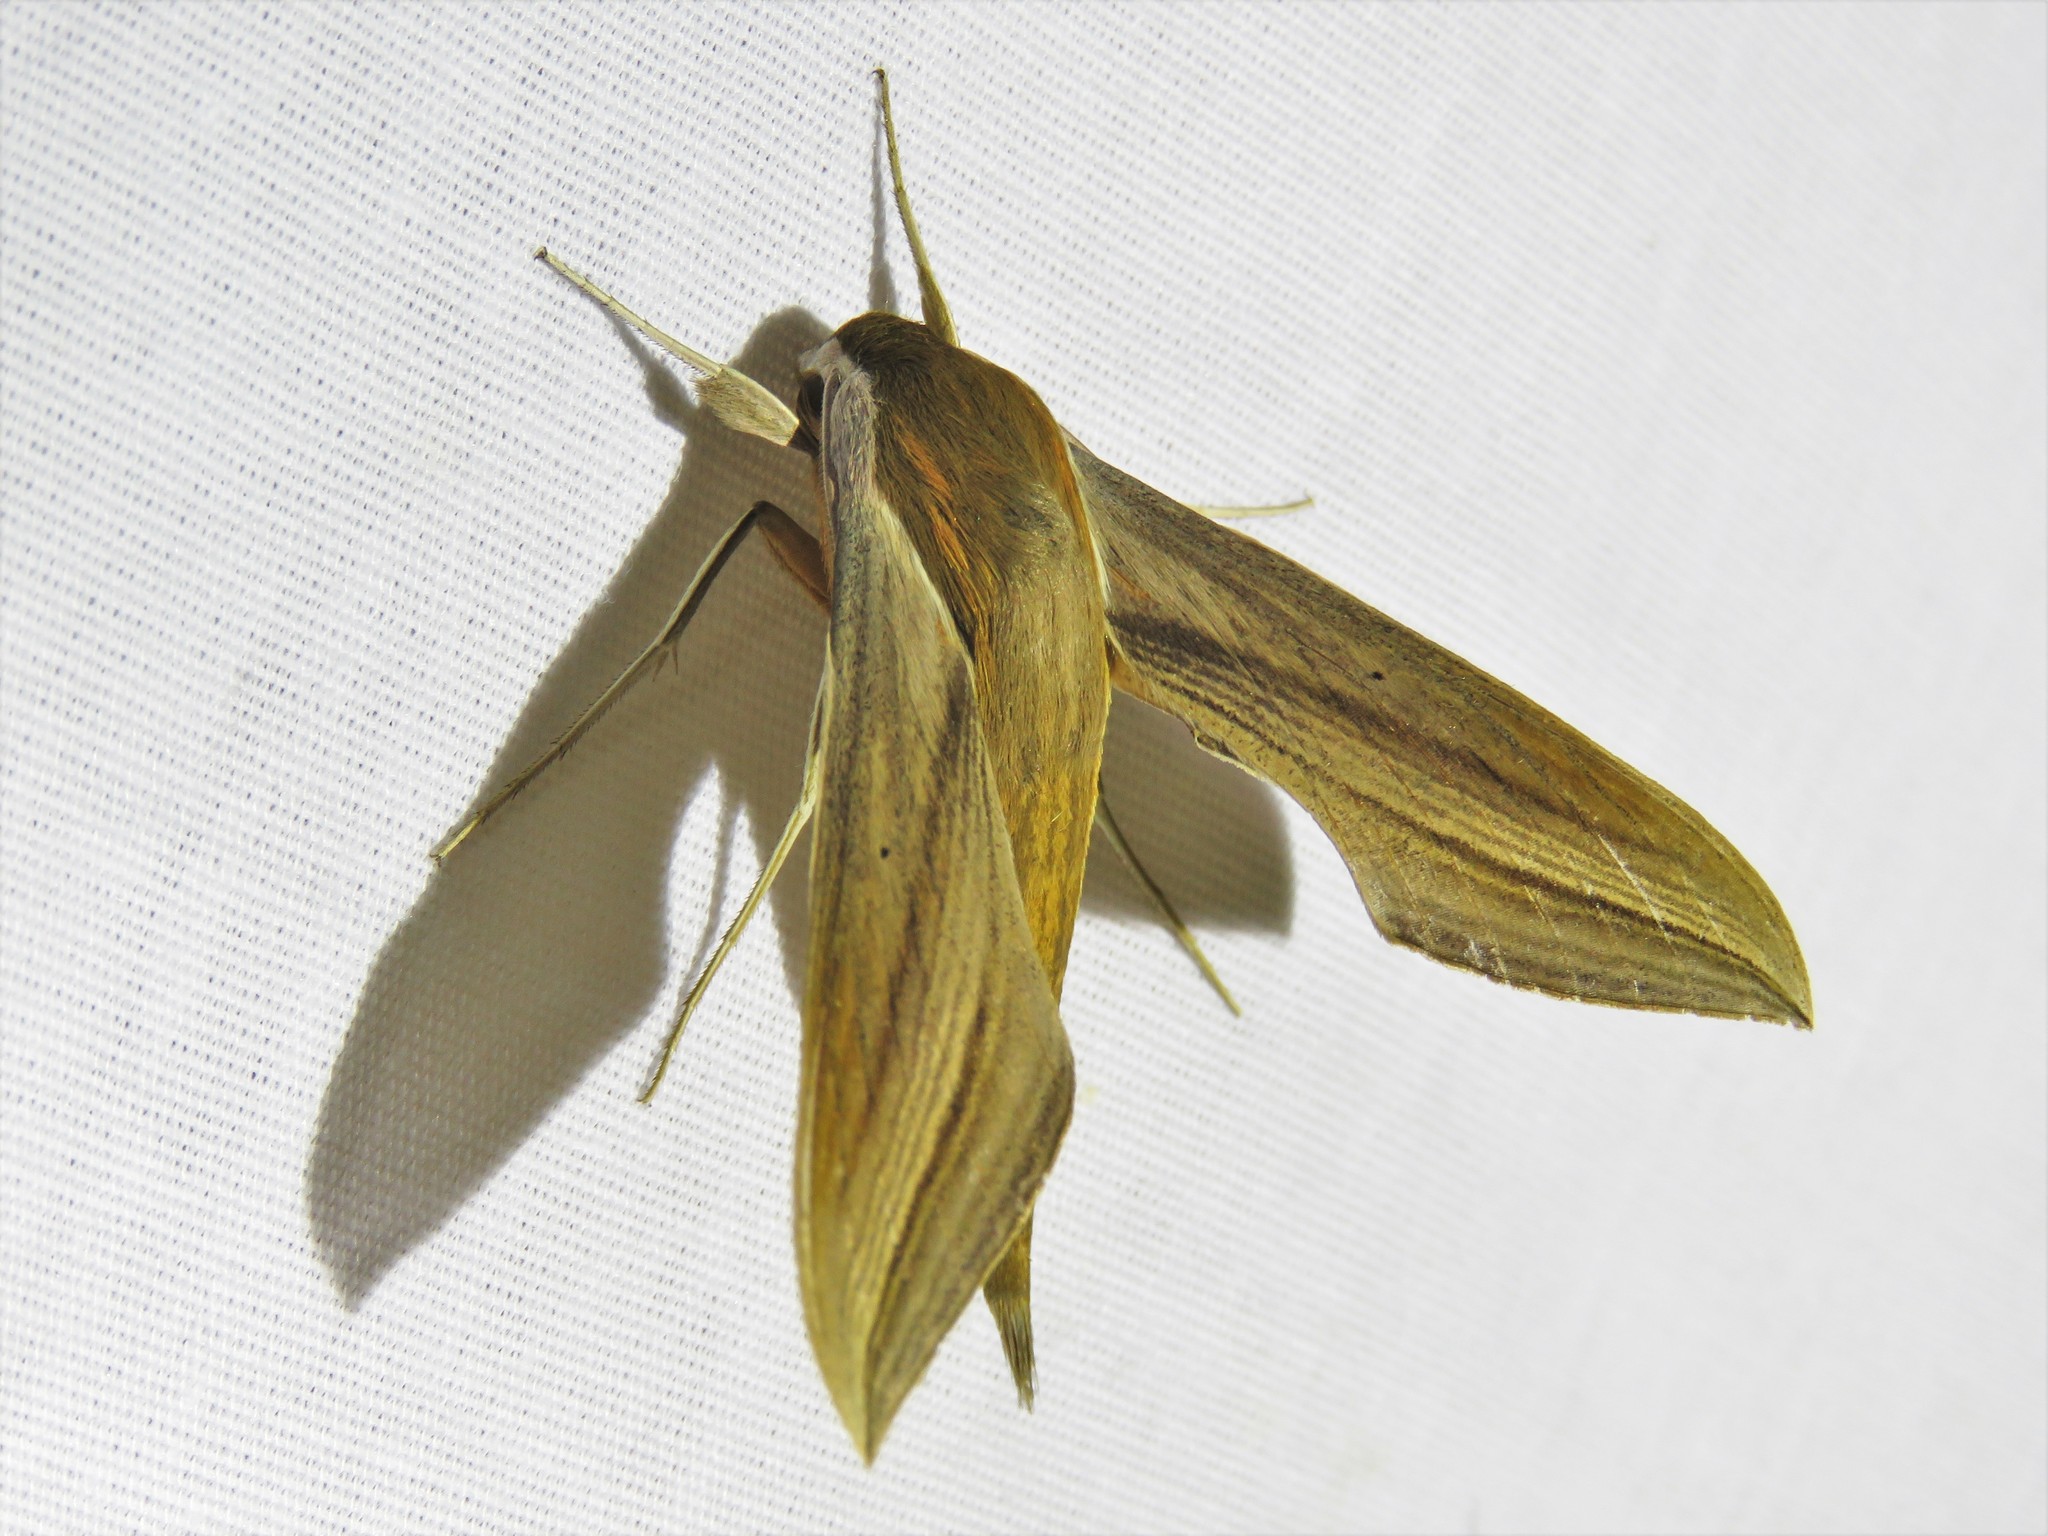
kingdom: Animalia
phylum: Arthropoda
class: Insecta
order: Lepidoptera
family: Sphingidae
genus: Xylophanes
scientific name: Xylophanes tersa
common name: Tersa sphinx
